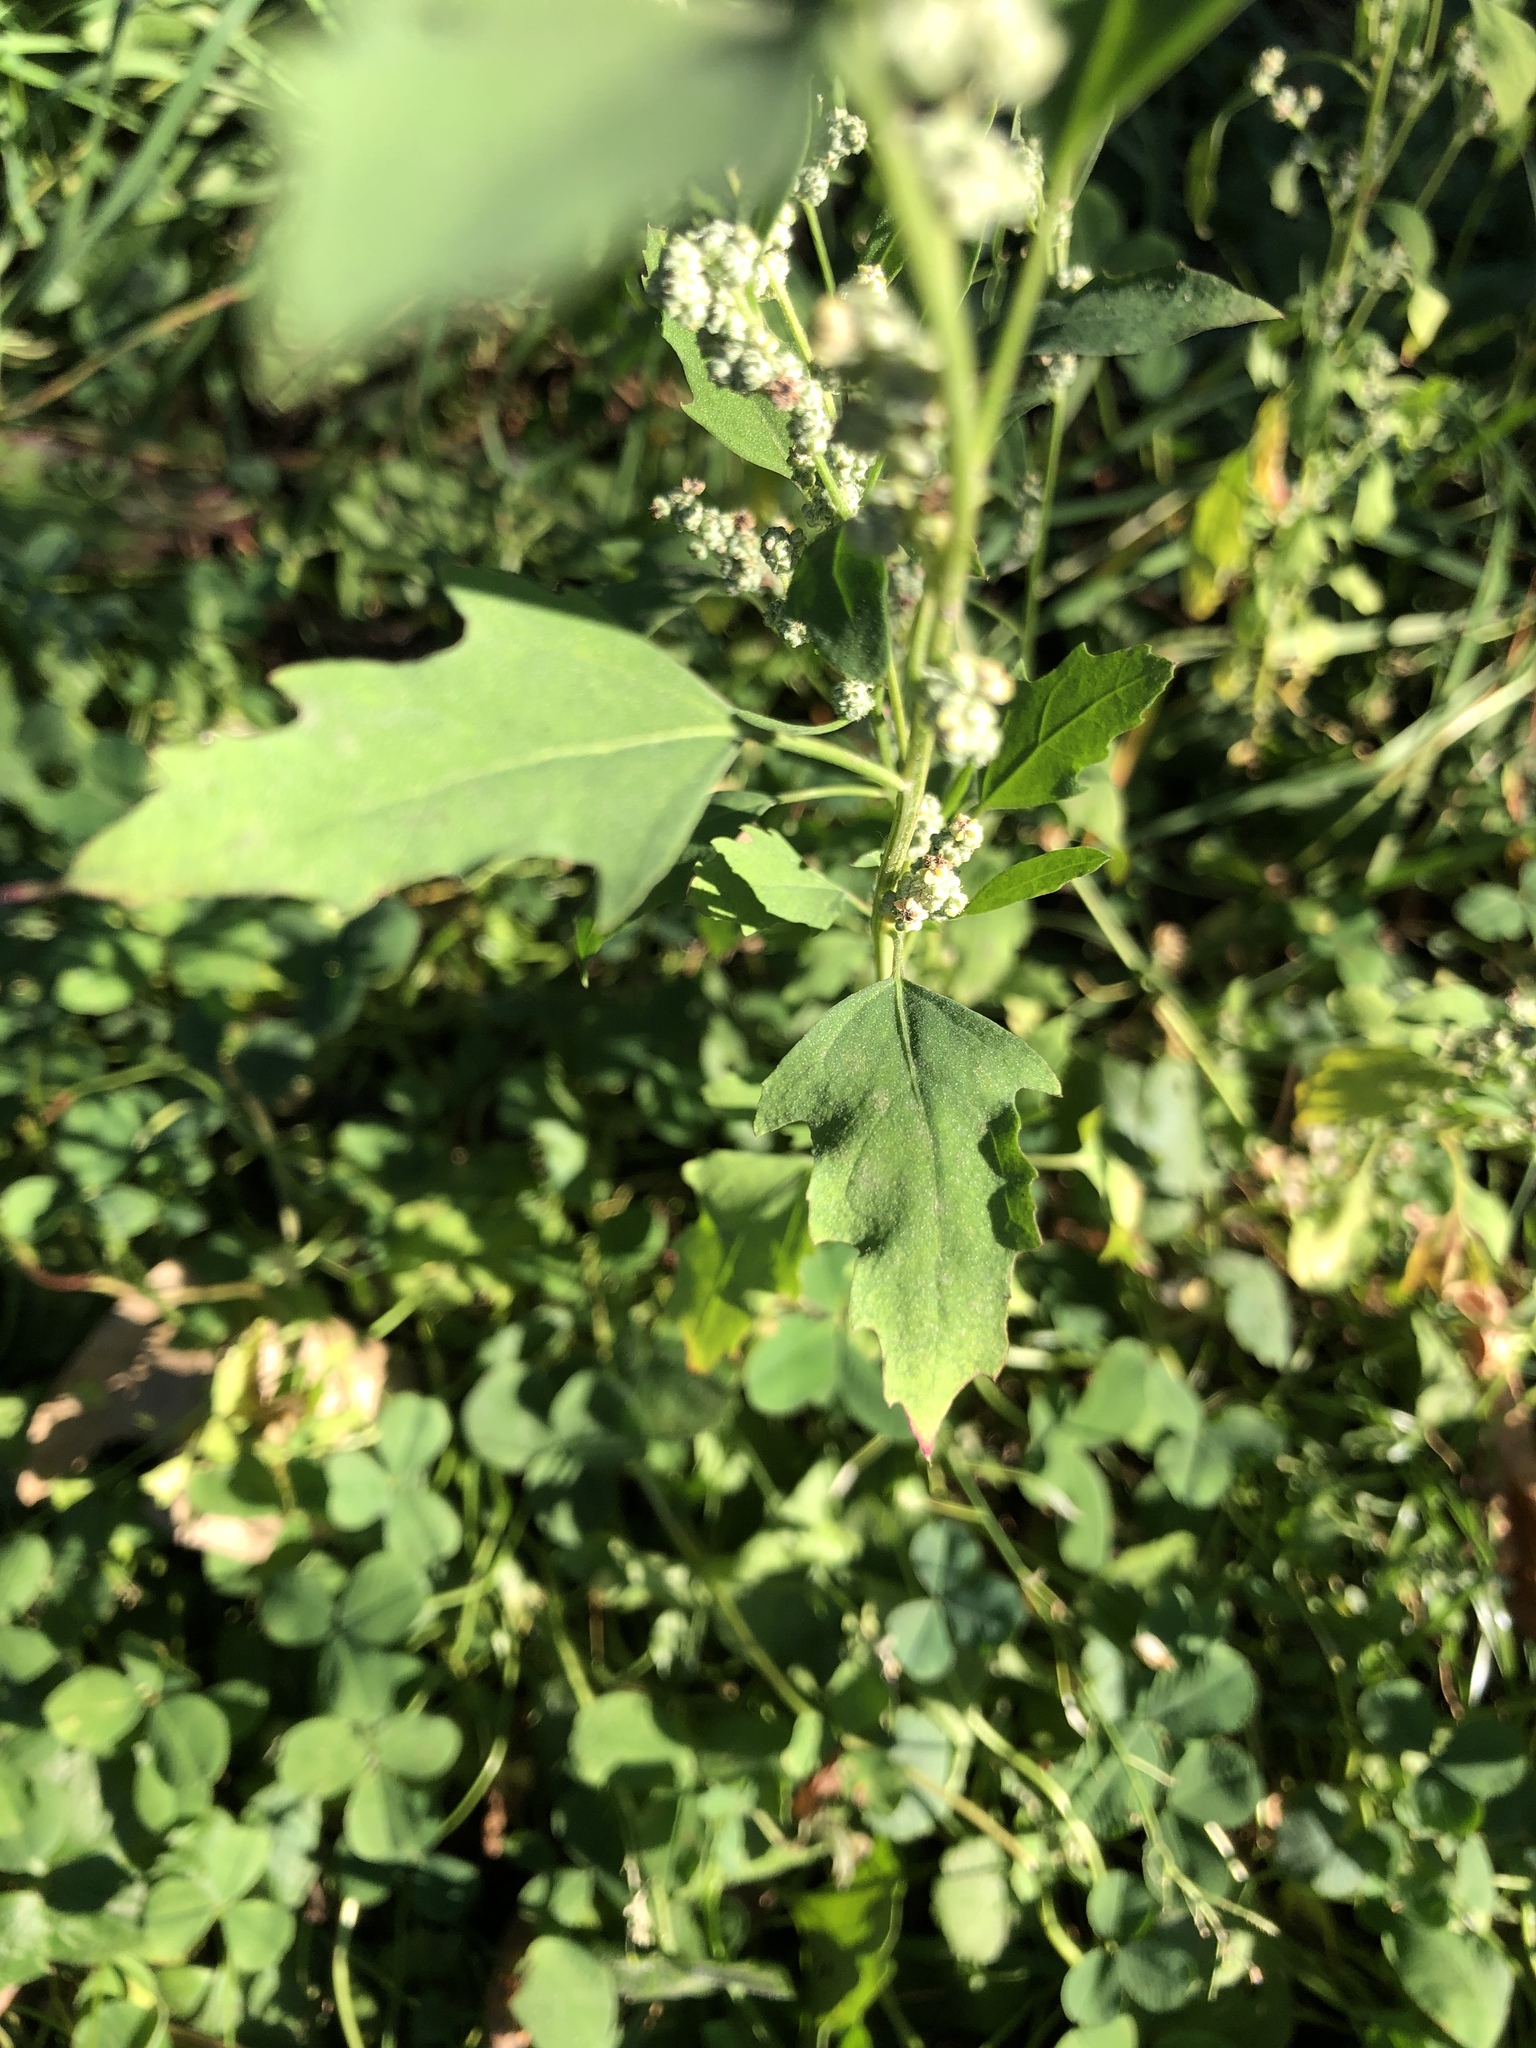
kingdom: Plantae
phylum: Tracheophyta
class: Magnoliopsida
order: Caryophyllales
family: Amaranthaceae
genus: Chenopodium
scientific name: Chenopodium album
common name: Fat-hen
